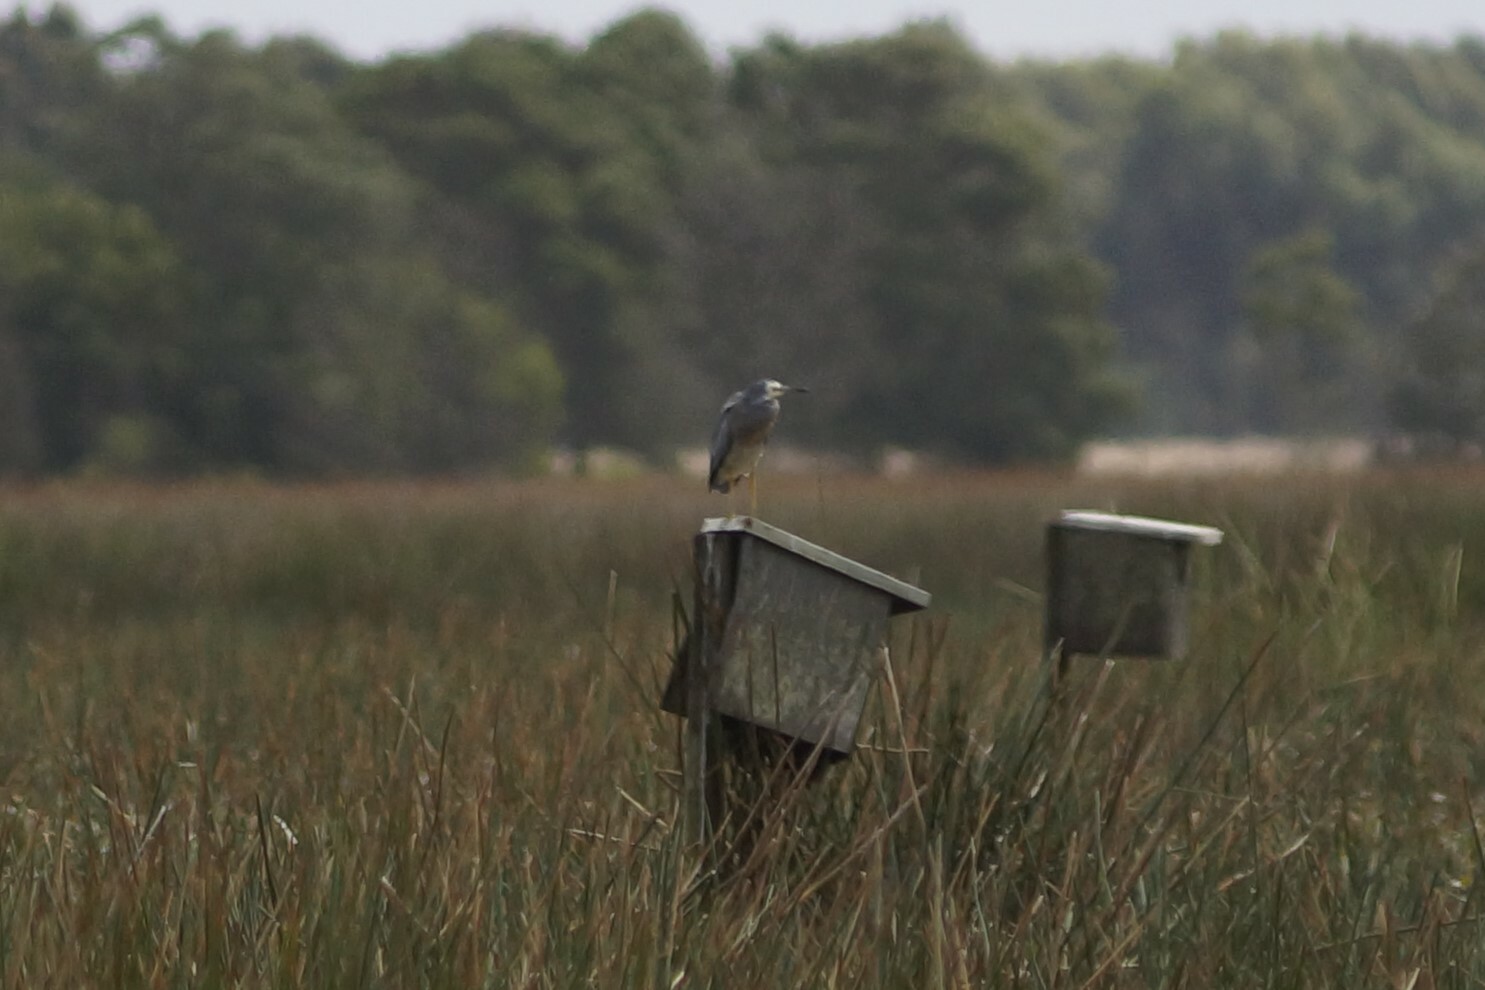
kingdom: Animalia
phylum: Chordata
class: Aves
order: Pelecaniformes
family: Ardeidae
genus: Egretta
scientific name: Egretta novaehollandiae
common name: White-faced heron
